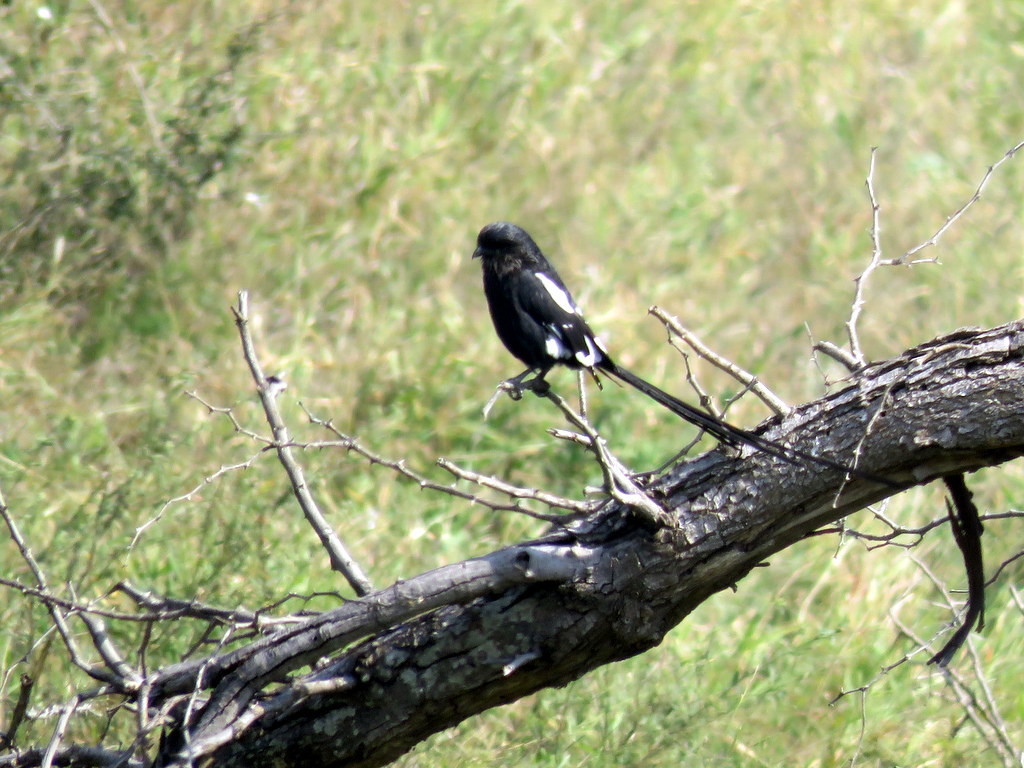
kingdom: Animalia
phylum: Chordata
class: Aves
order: Passeriformes
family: Laniidae
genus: Urolestes
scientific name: Urolestes melanoleucus
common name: Magpie shrike
